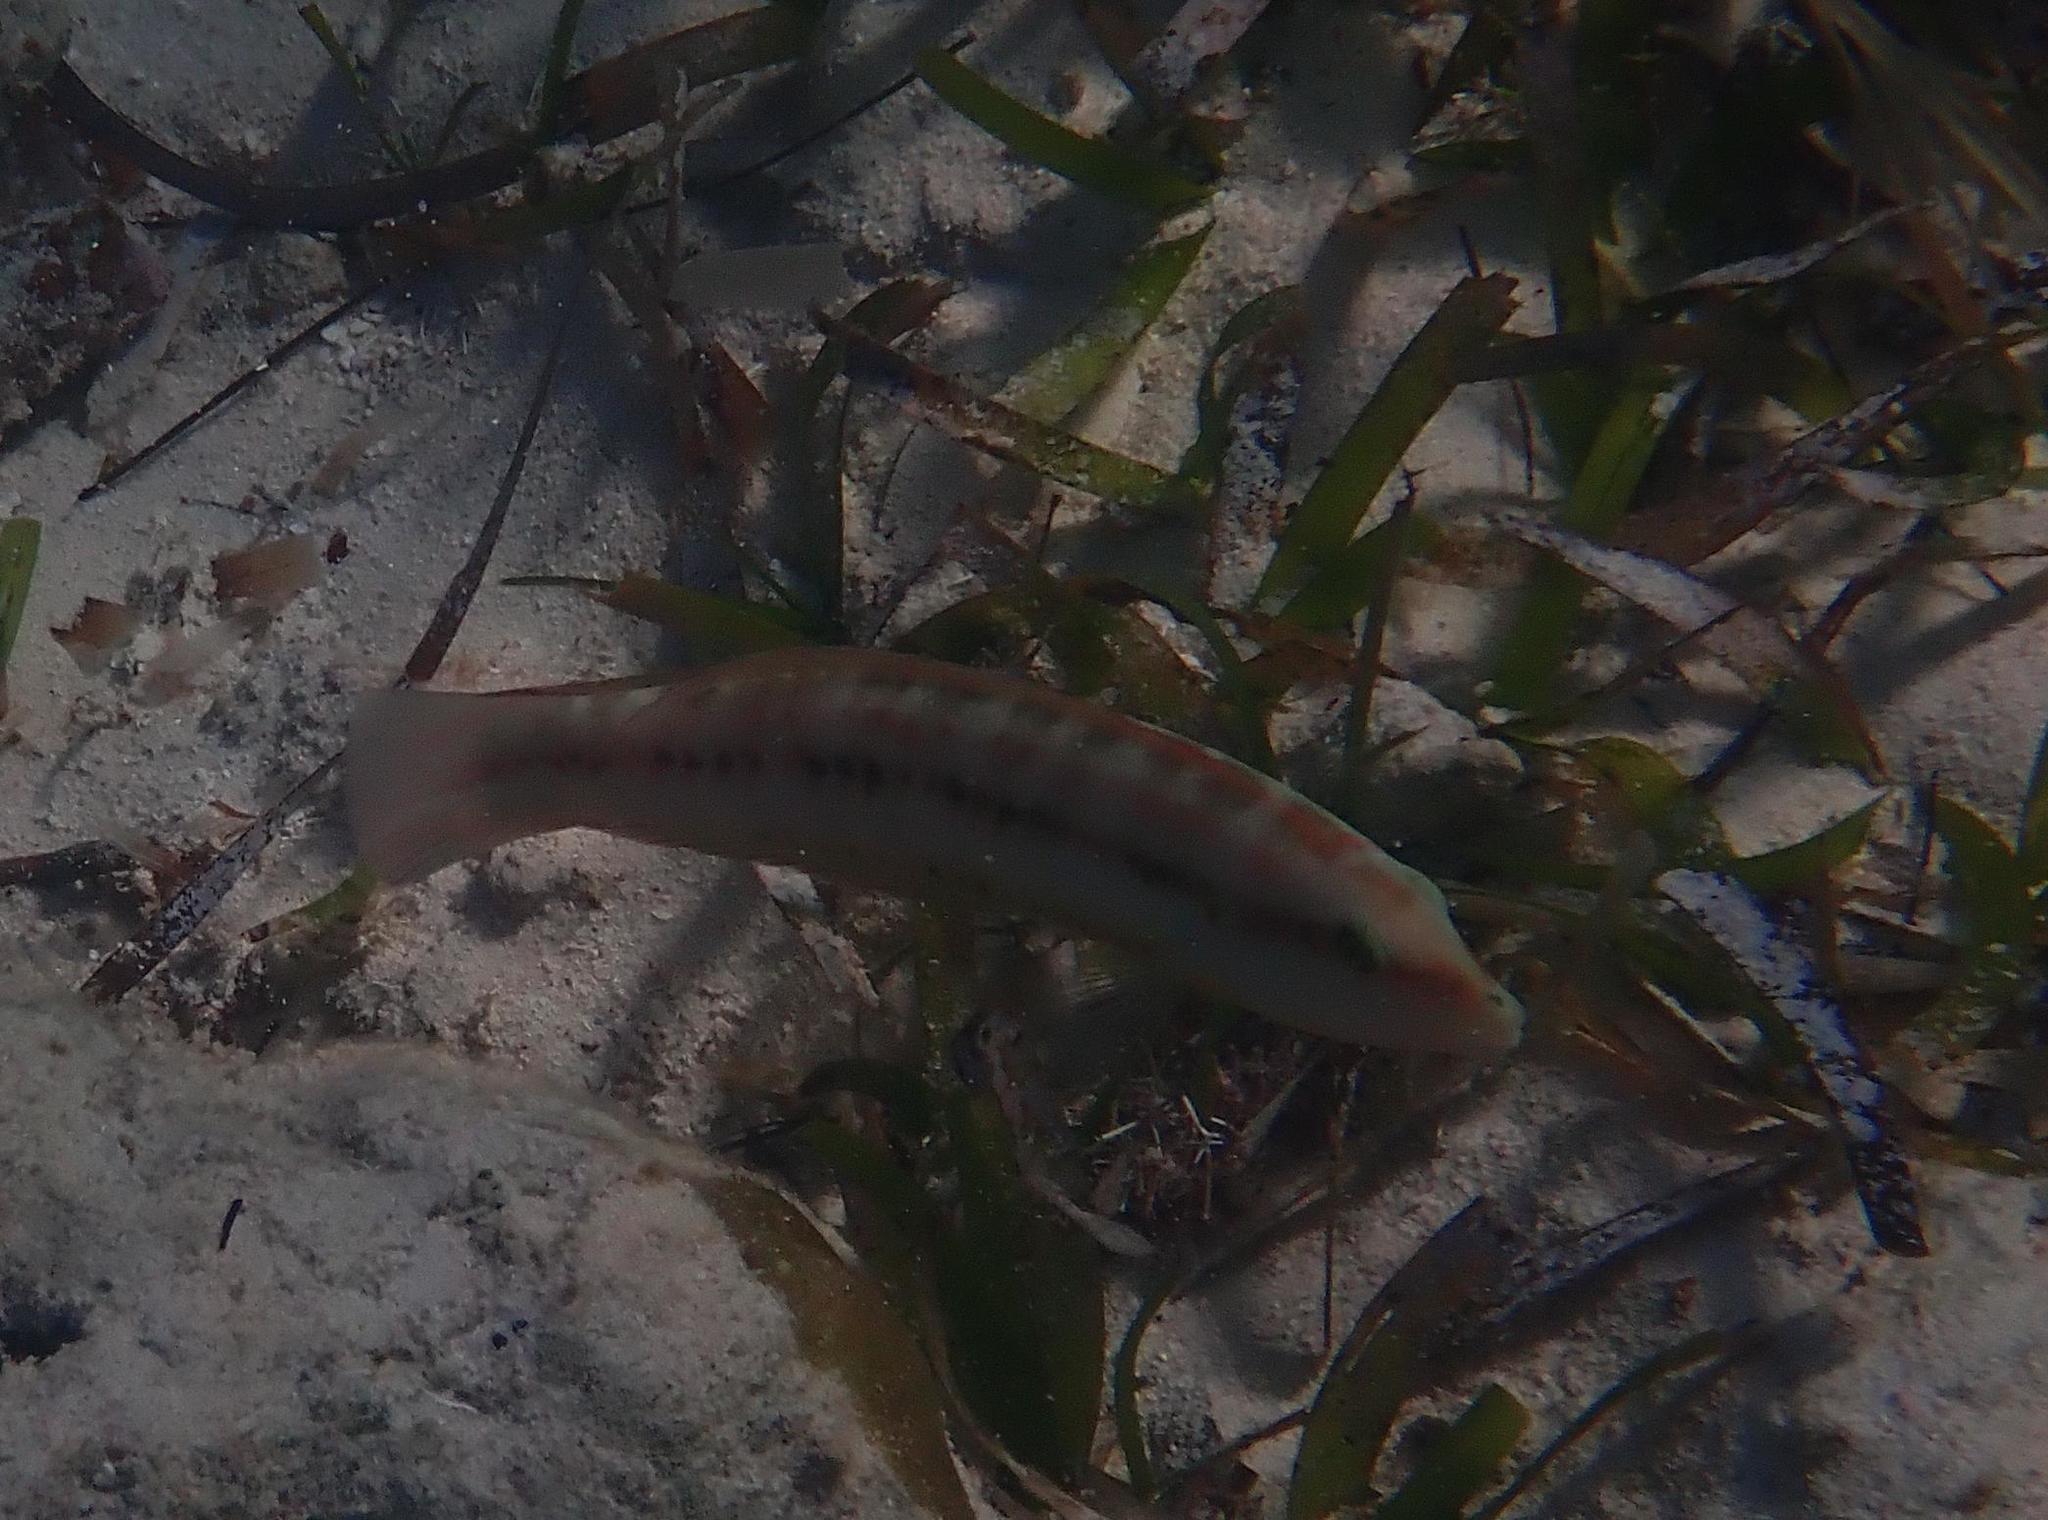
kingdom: Animalia
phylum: Chordata
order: Perciformes
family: Labridae
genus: Halichoeres
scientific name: Halichoeres bivittatus
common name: Slippery dick
